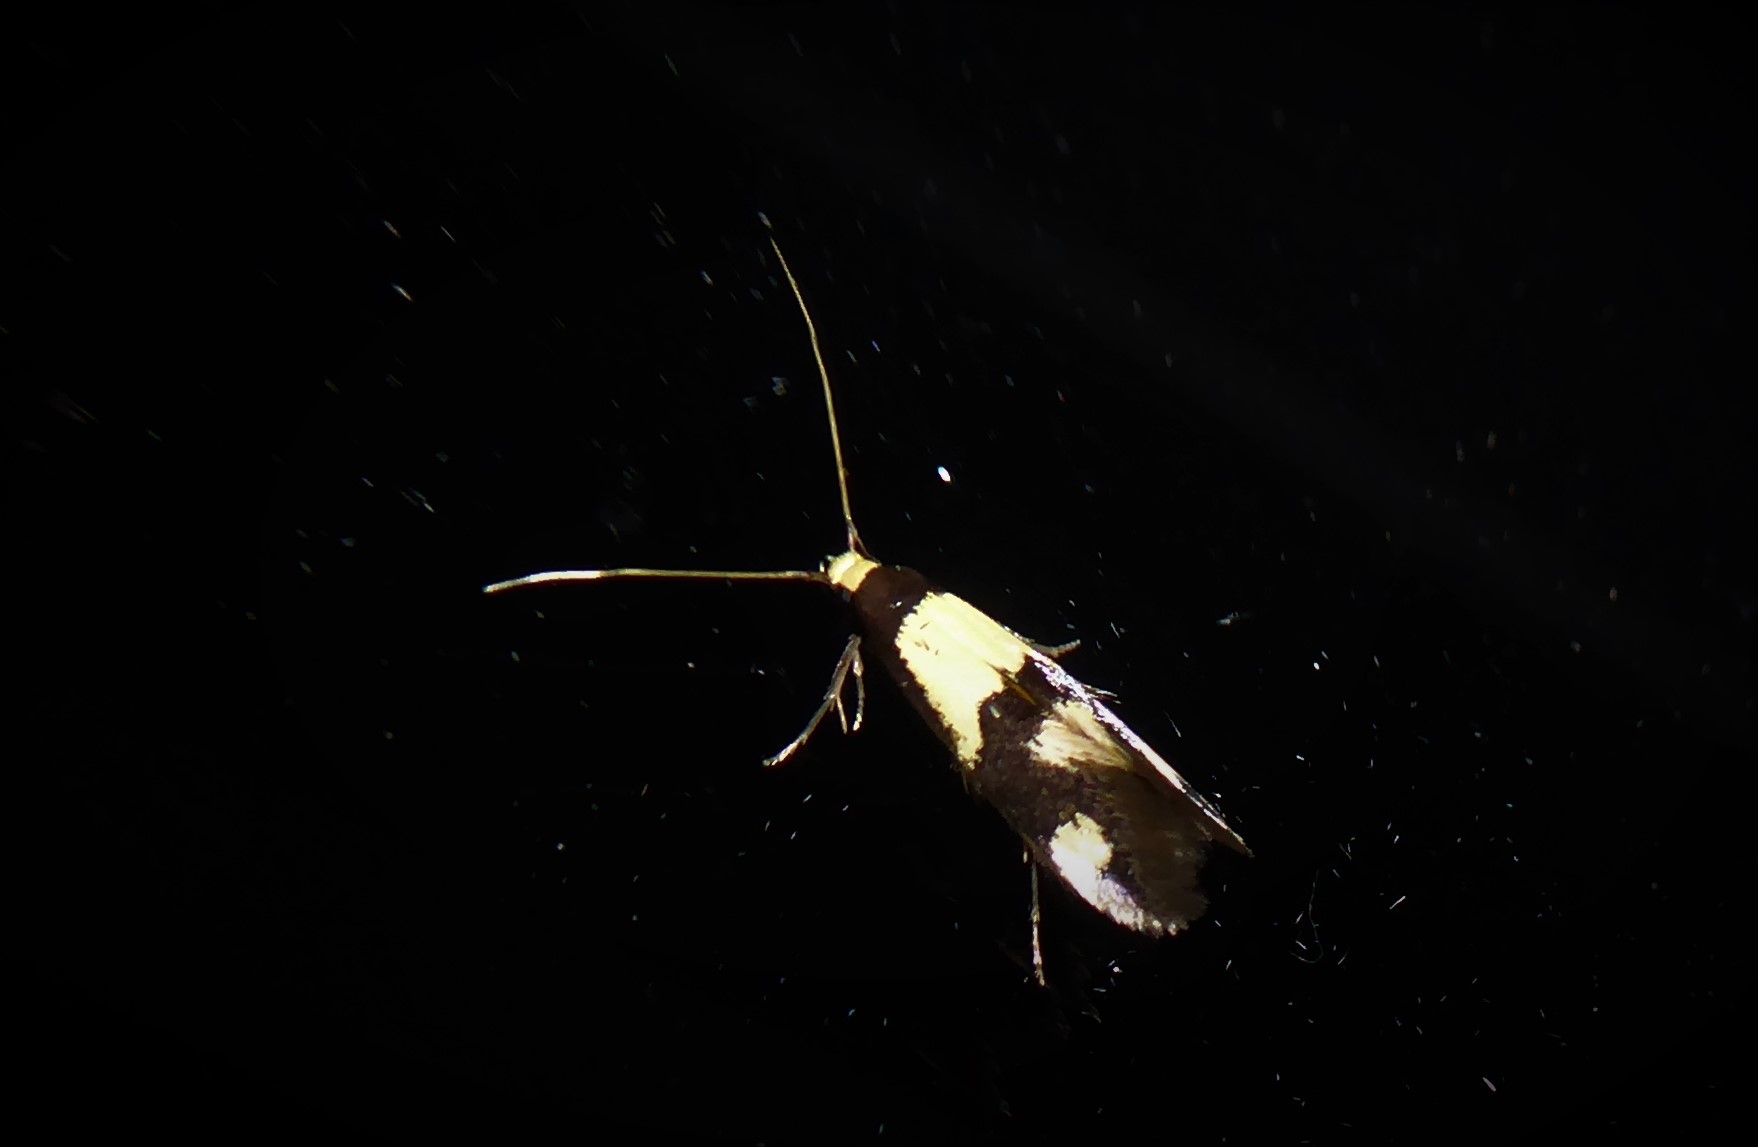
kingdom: Animalia
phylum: Arthropoda
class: Insecta
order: Lepidoptera
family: Tineidae
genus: Opogona
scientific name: Opogona comptella
